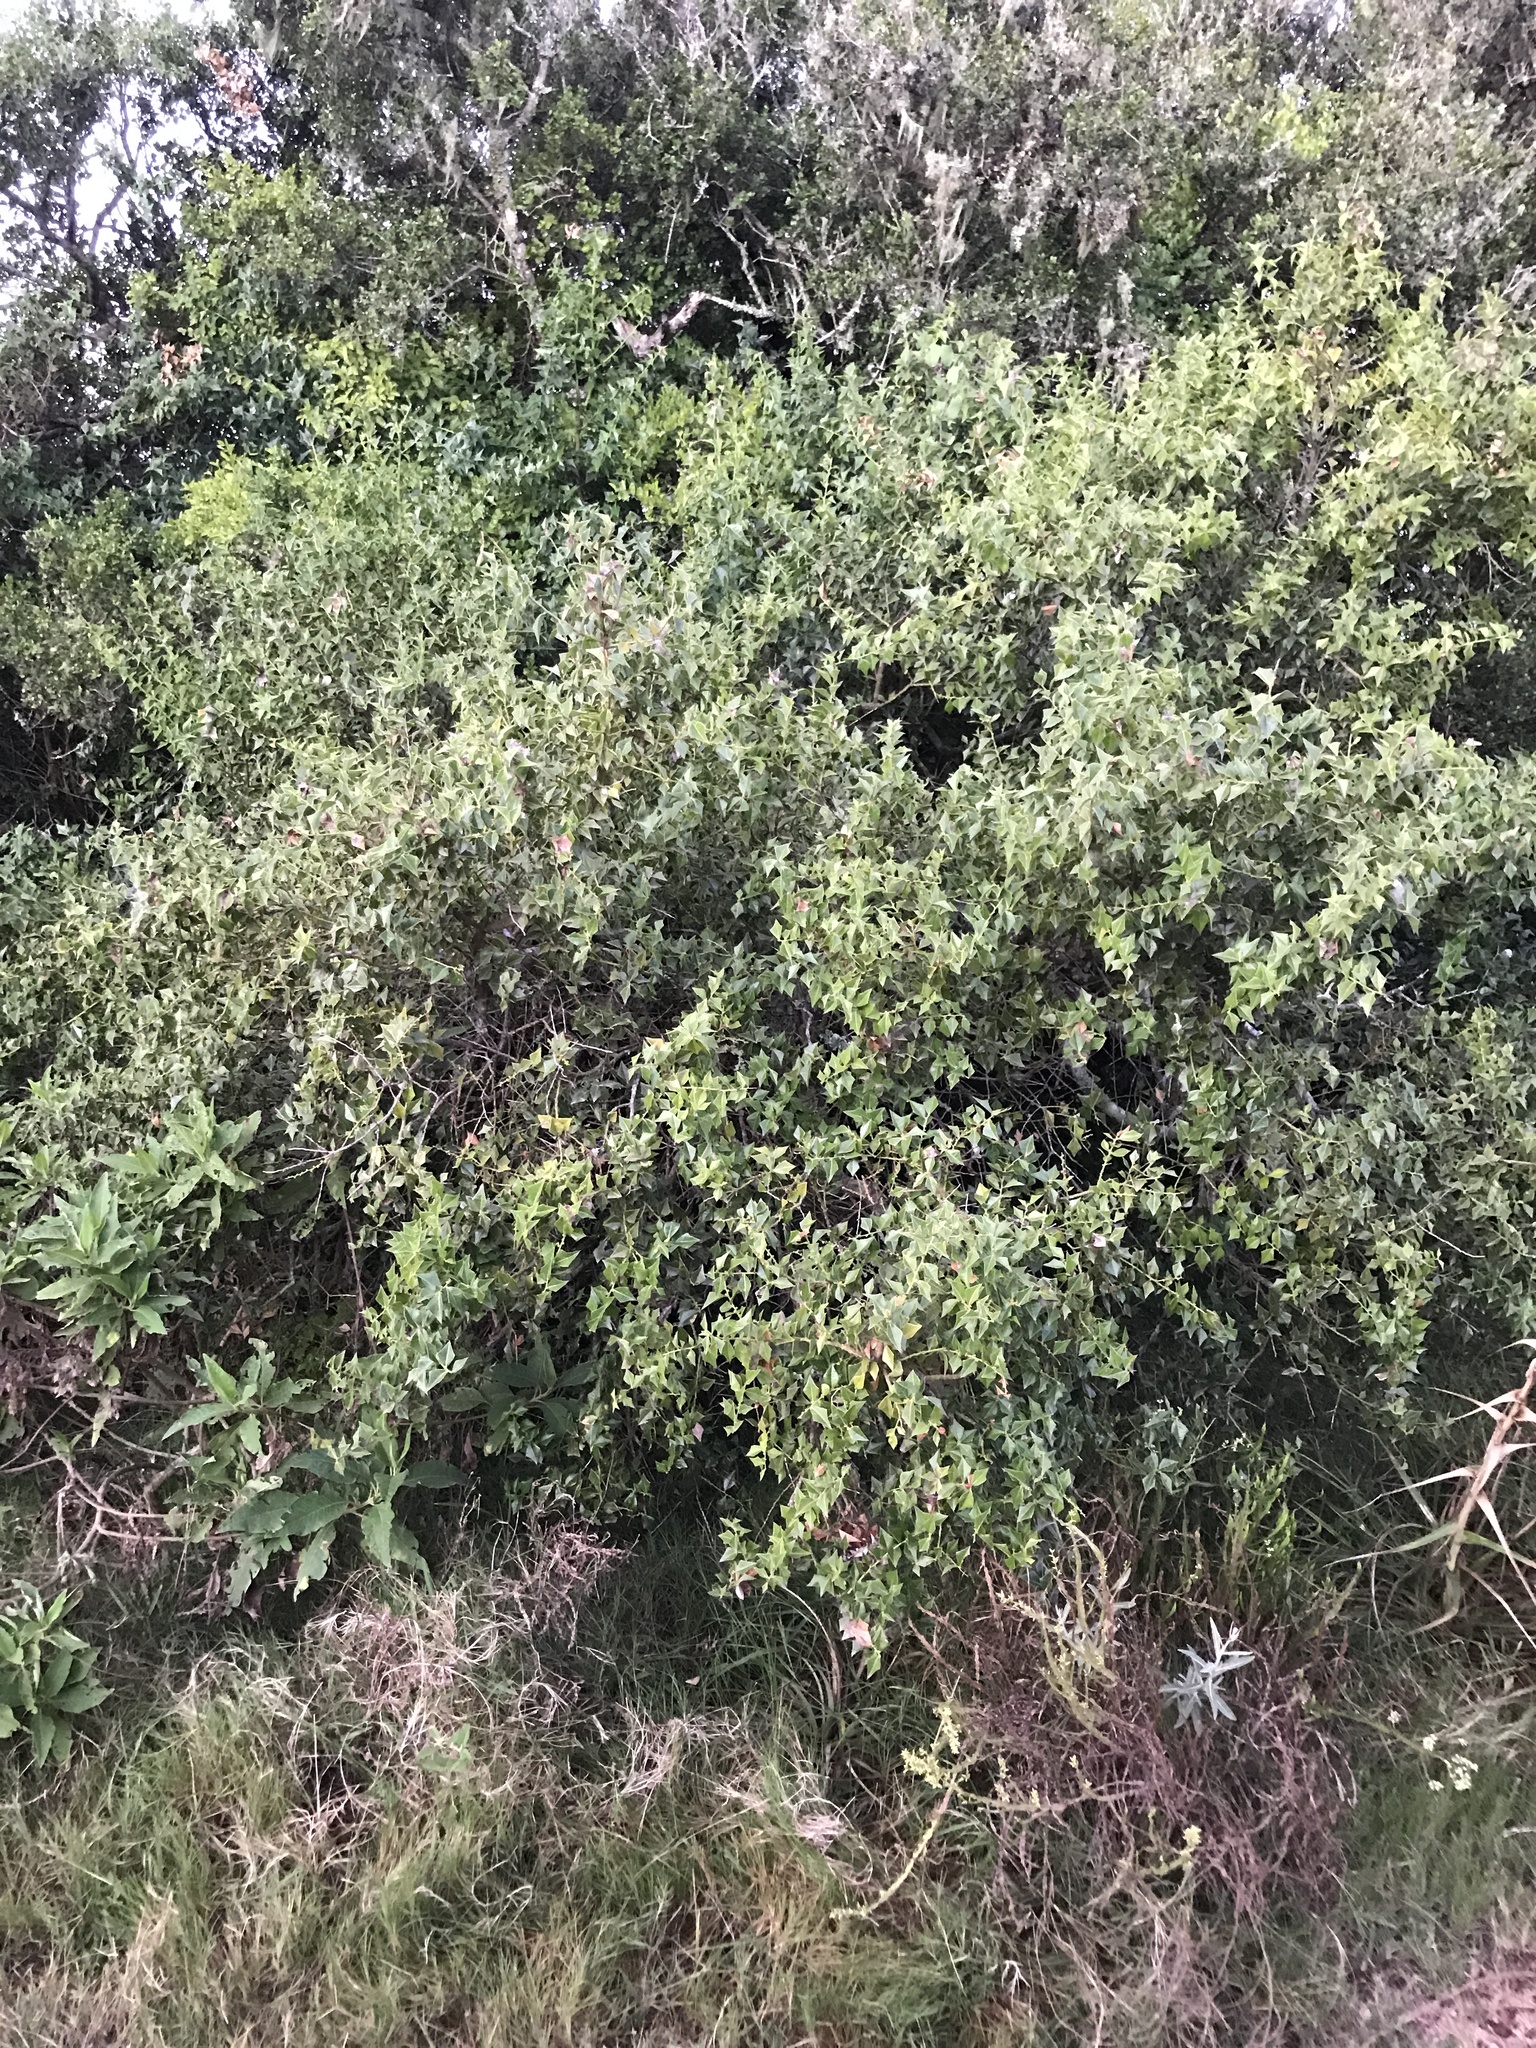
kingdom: Plantae
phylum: Tracheophyta
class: Magnoliopsida
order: Santalales
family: Cervantesiaceae
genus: Jodina
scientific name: Jodina rhombifolia
